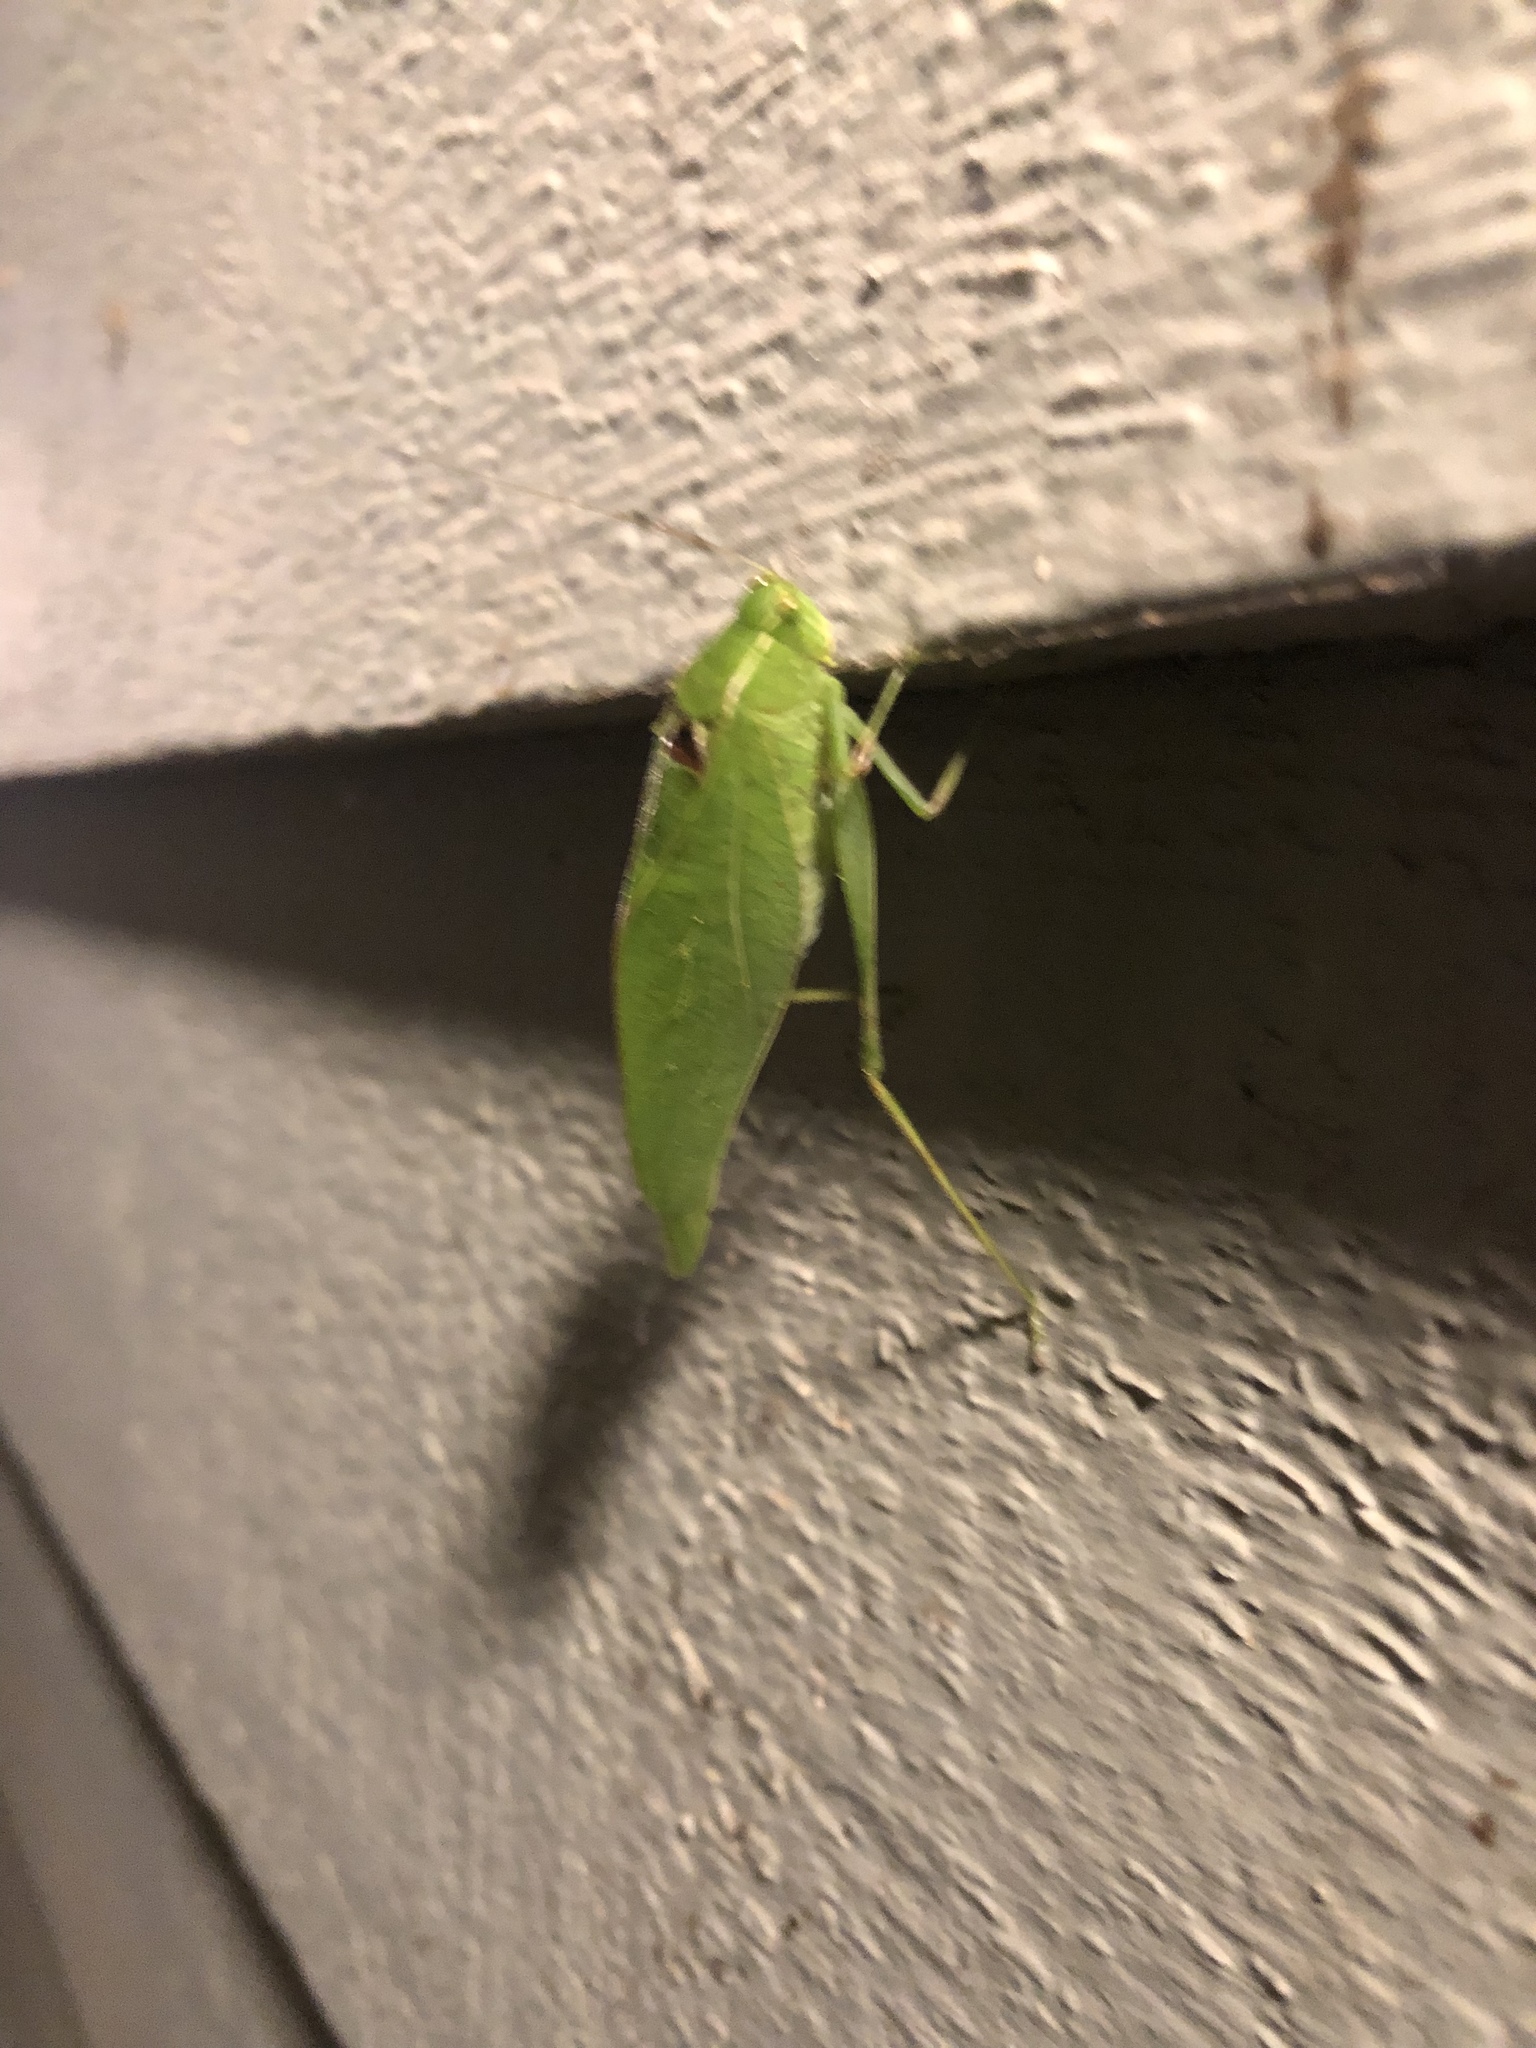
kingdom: Animalia
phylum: Arthropoda
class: Insecta
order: Orthoptera
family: Tettigoniidae
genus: Microcentrum
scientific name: Microcentrum retinerve
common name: Angular-winged katydid
